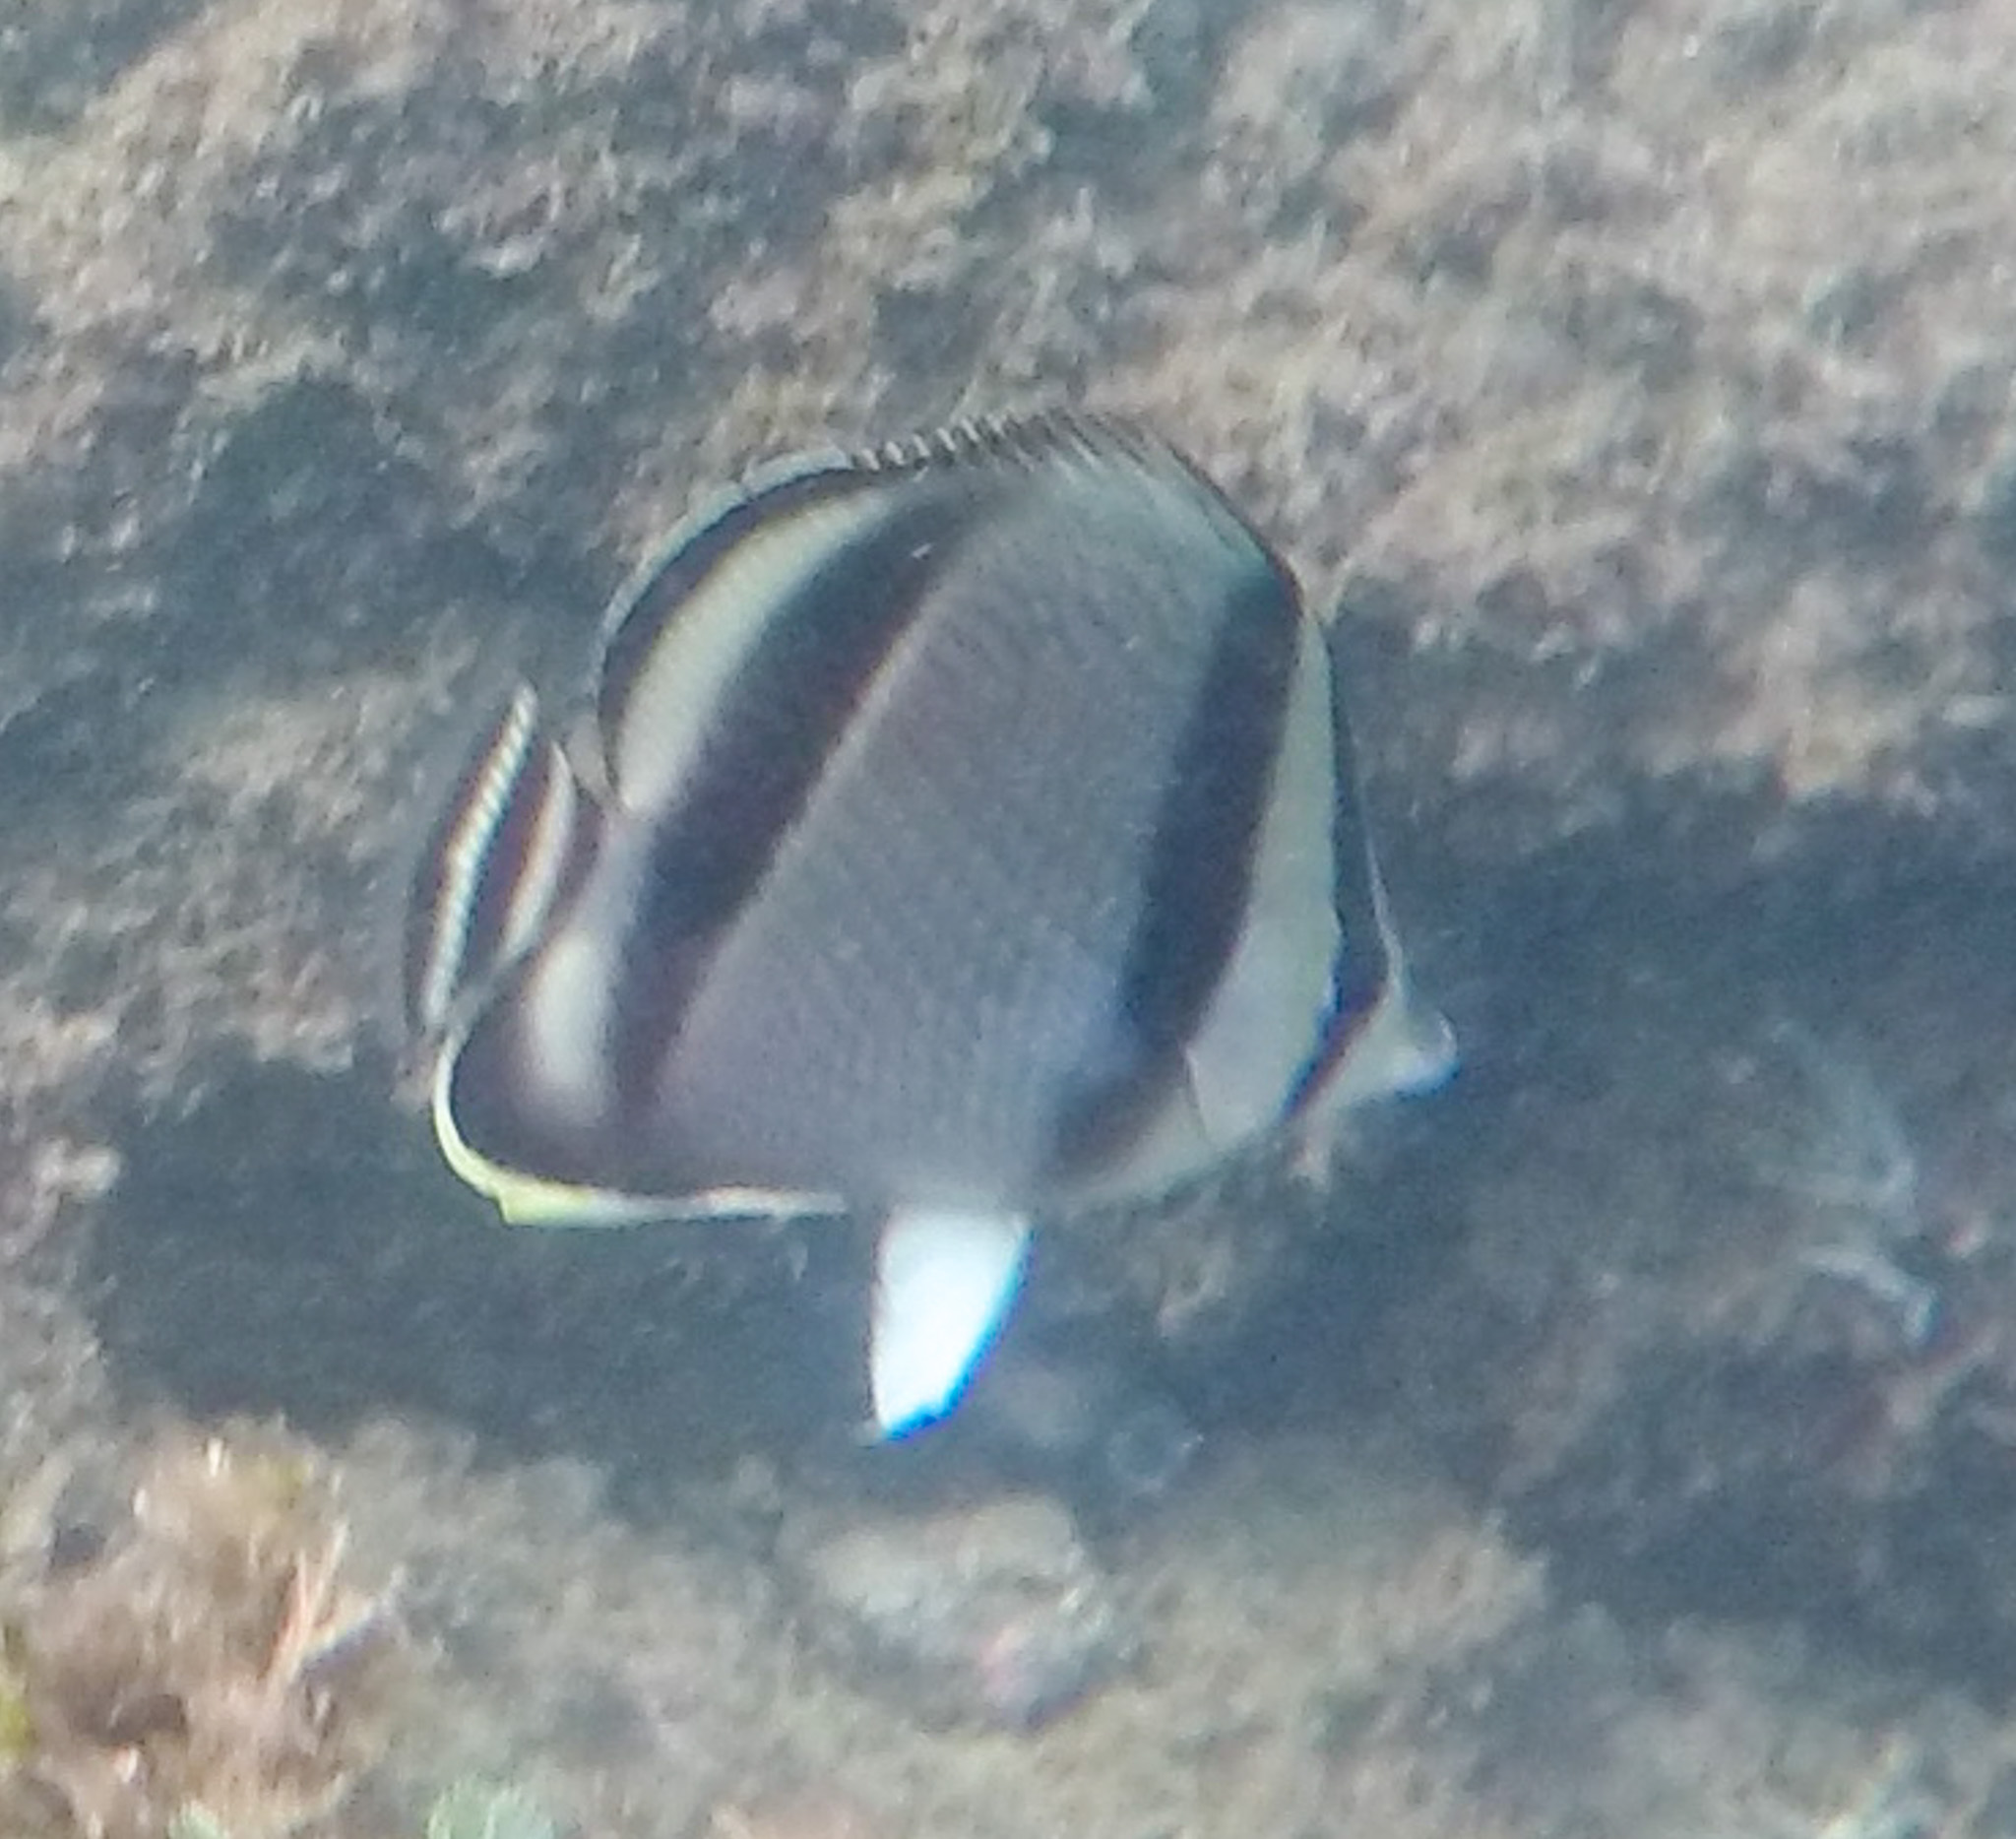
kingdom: Animalia
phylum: Chordata
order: Perciformes
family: Chaetodontidae
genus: Chaetodon
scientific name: Chaetodon humeralis
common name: Threebanded butterflyfish
